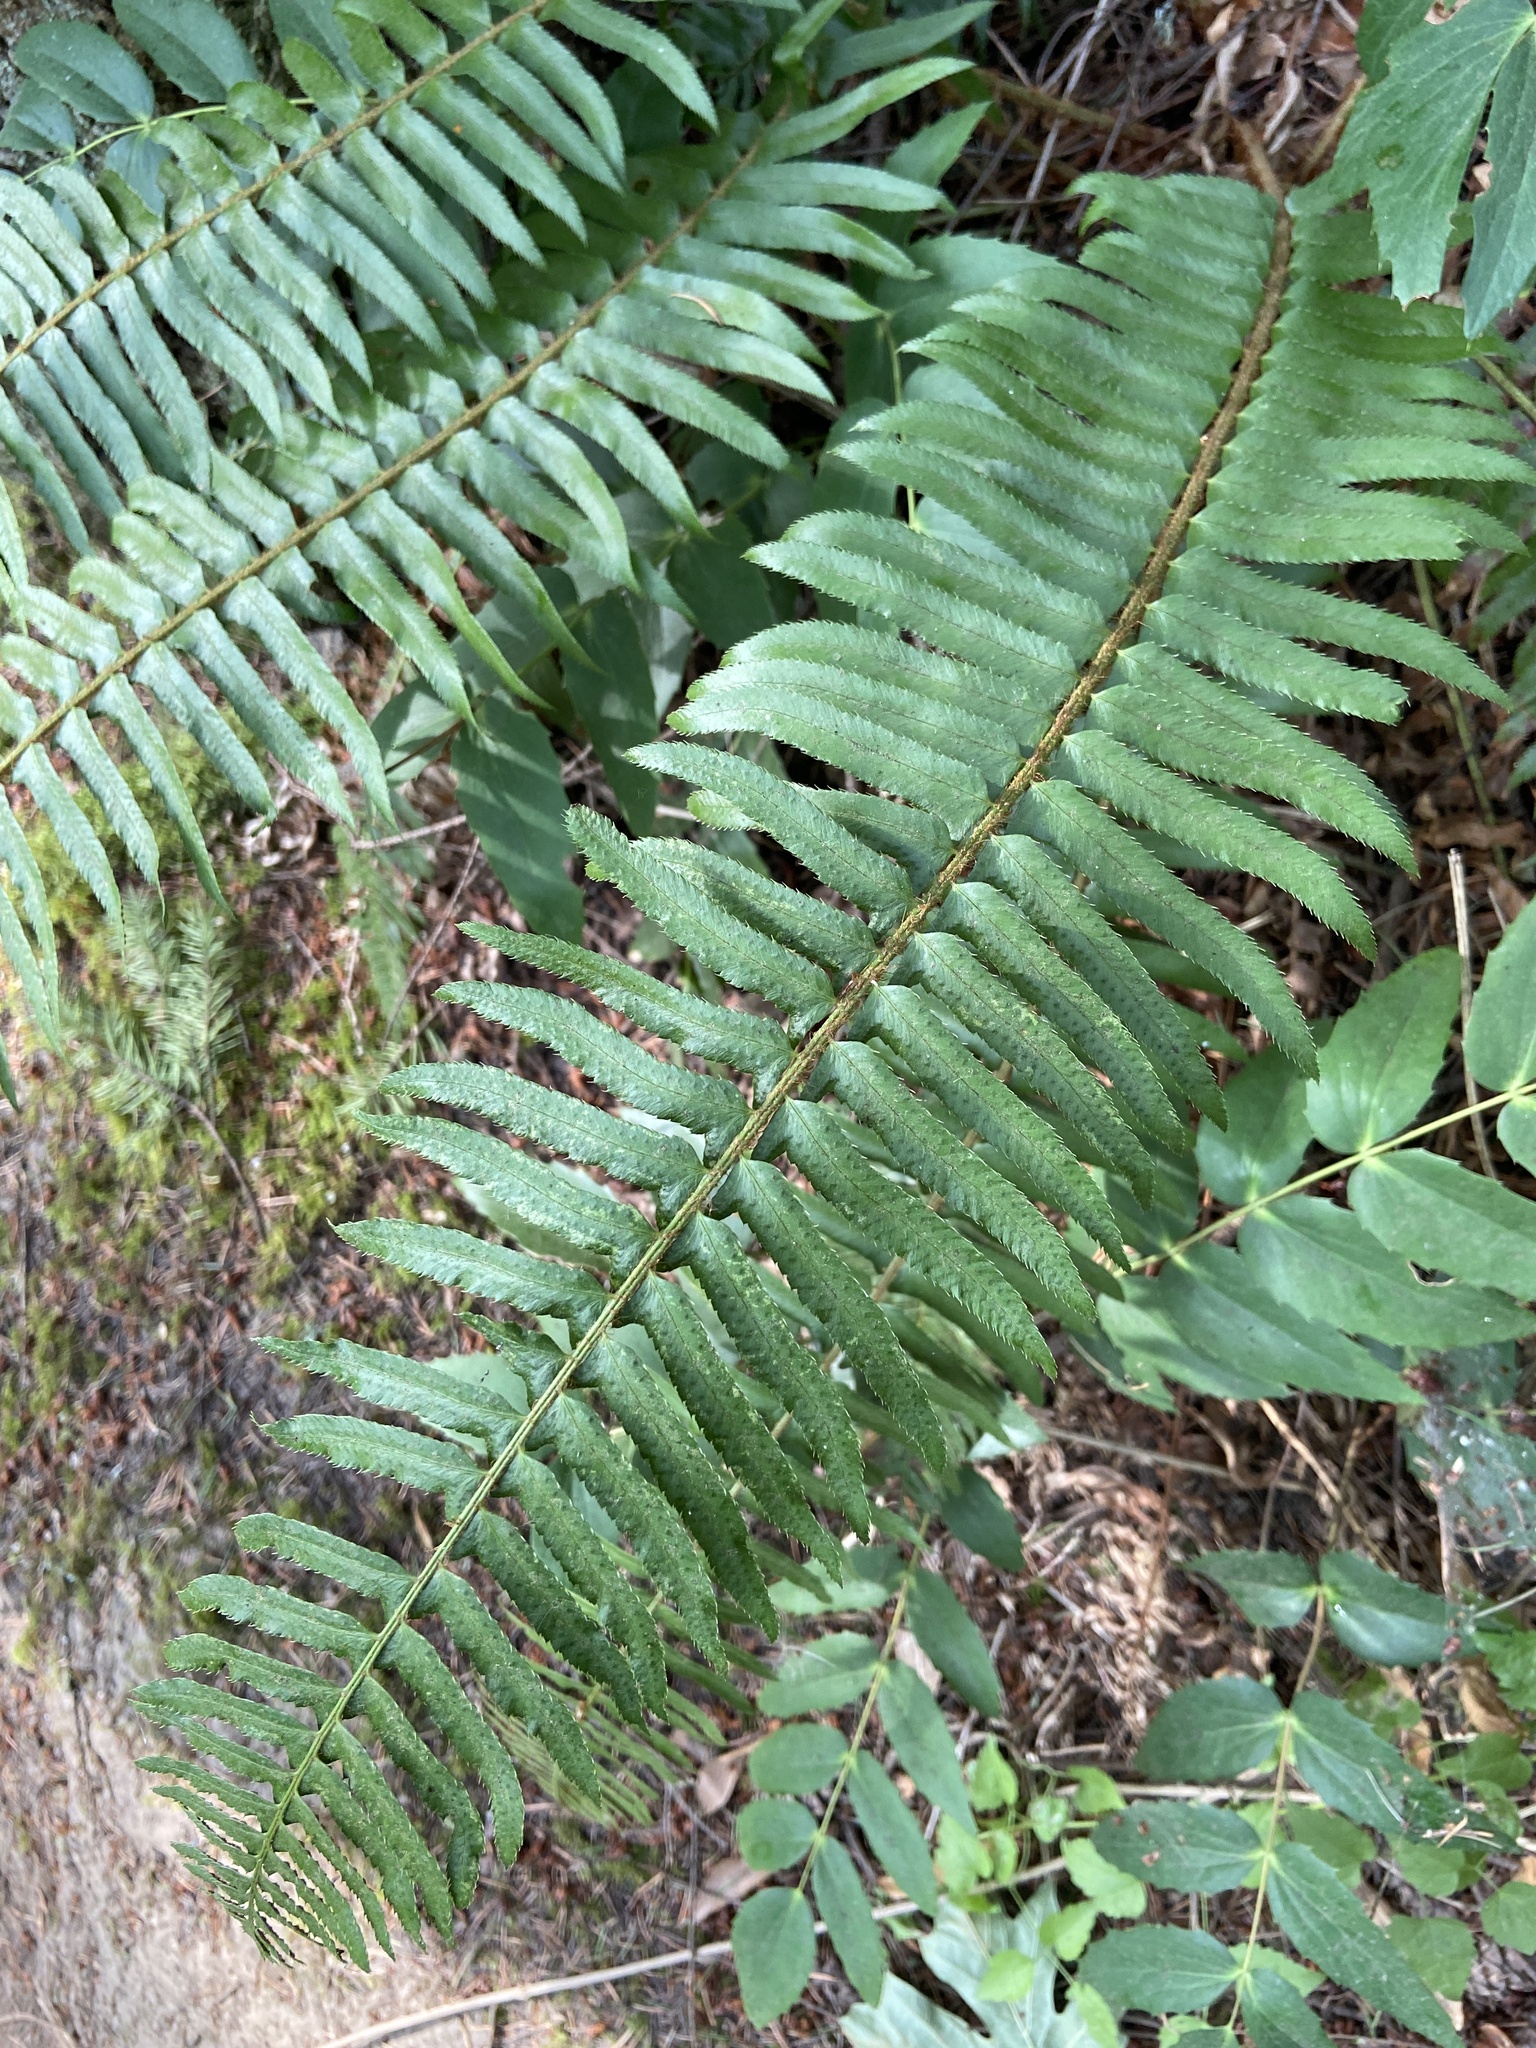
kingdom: Plantae
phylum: Tracheophyta
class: Polypodiopsida
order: Polypodiales
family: Dryopteridaceae
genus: Polystichum
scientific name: Polystichum munitum
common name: Western sword-fern
